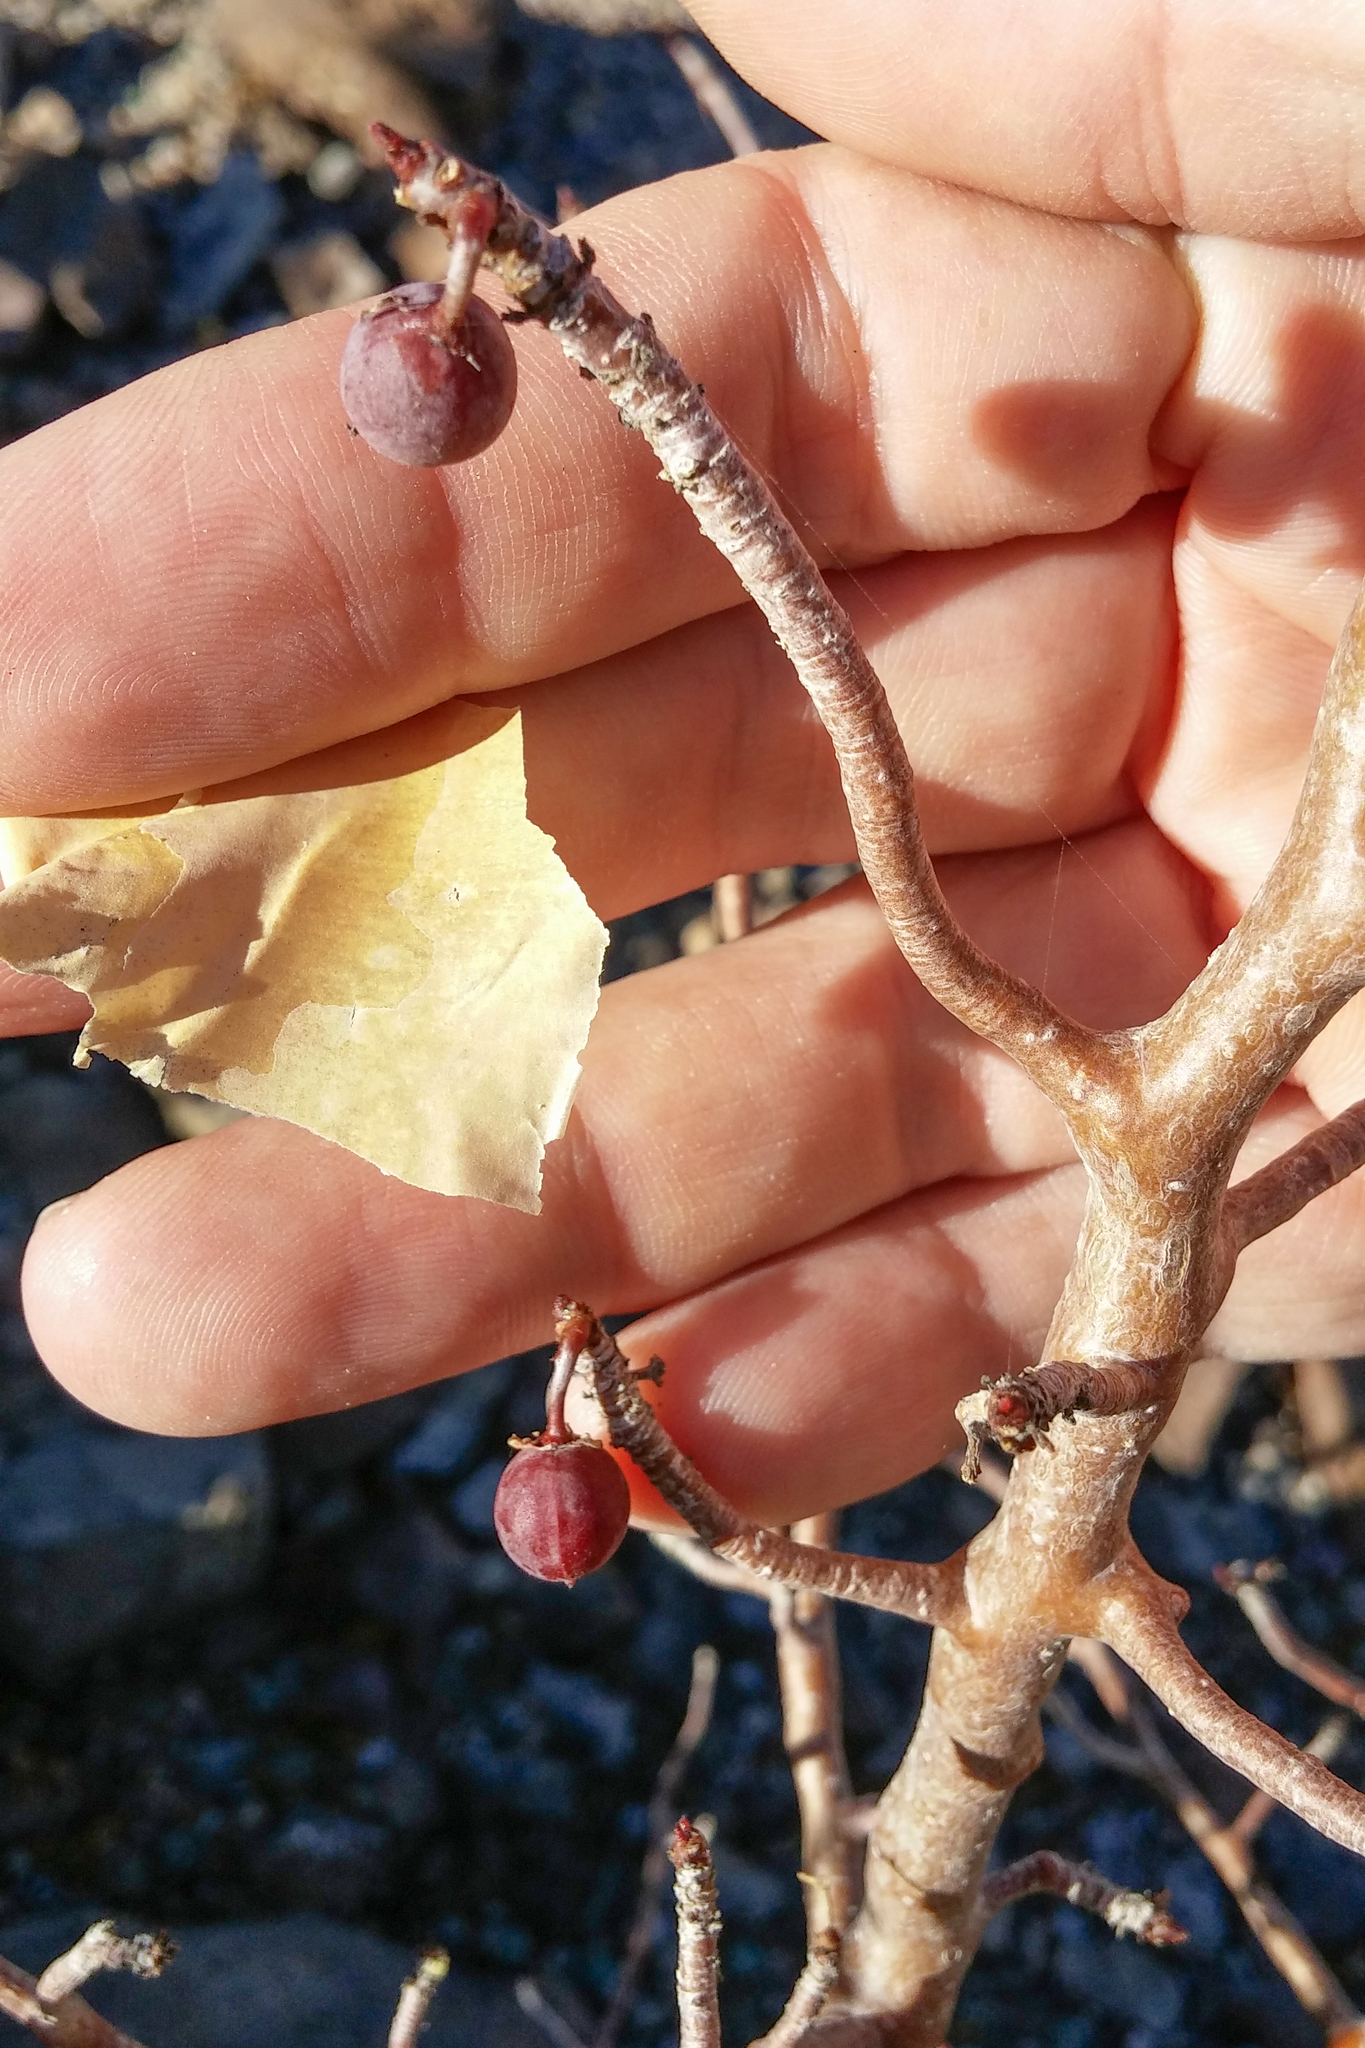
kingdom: Plantae
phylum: Tracheophyta
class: Magnoliopsida
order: Sapindales
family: Burseraceae
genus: Bursera
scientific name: Bursera fagaroides
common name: Elephant tree
